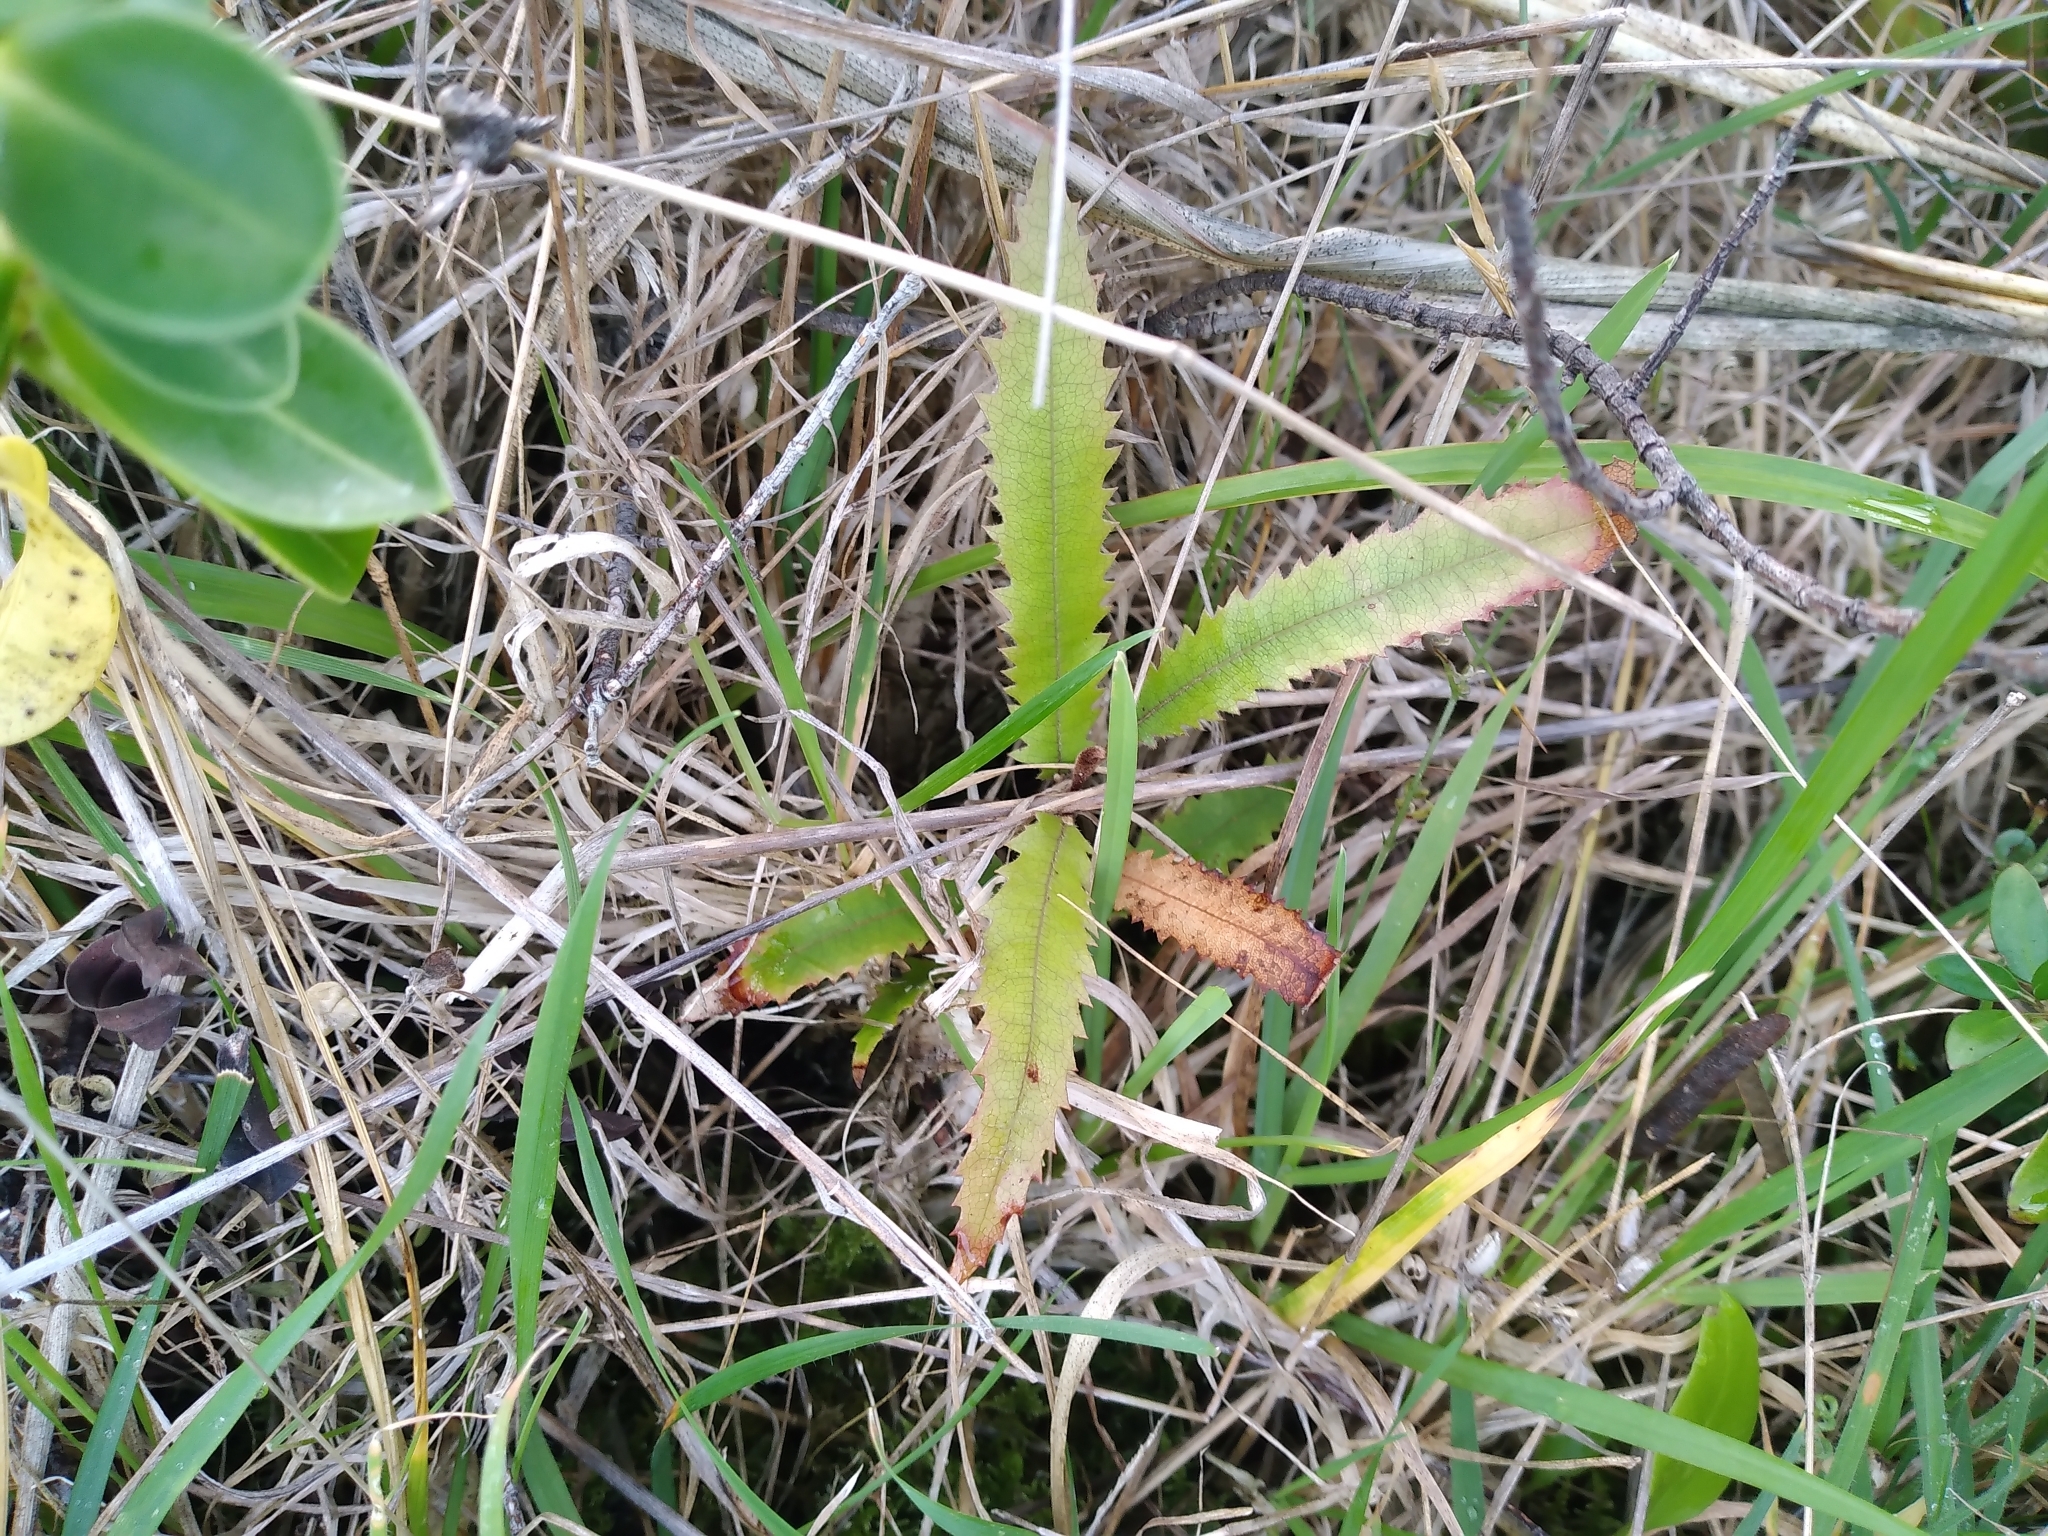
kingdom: Plantae
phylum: Tracheophyta
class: Magnoliopsida
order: Proteales
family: Proteaceae
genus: Knightia
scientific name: Knightia excelsa
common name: New zealand-honeysuckle
